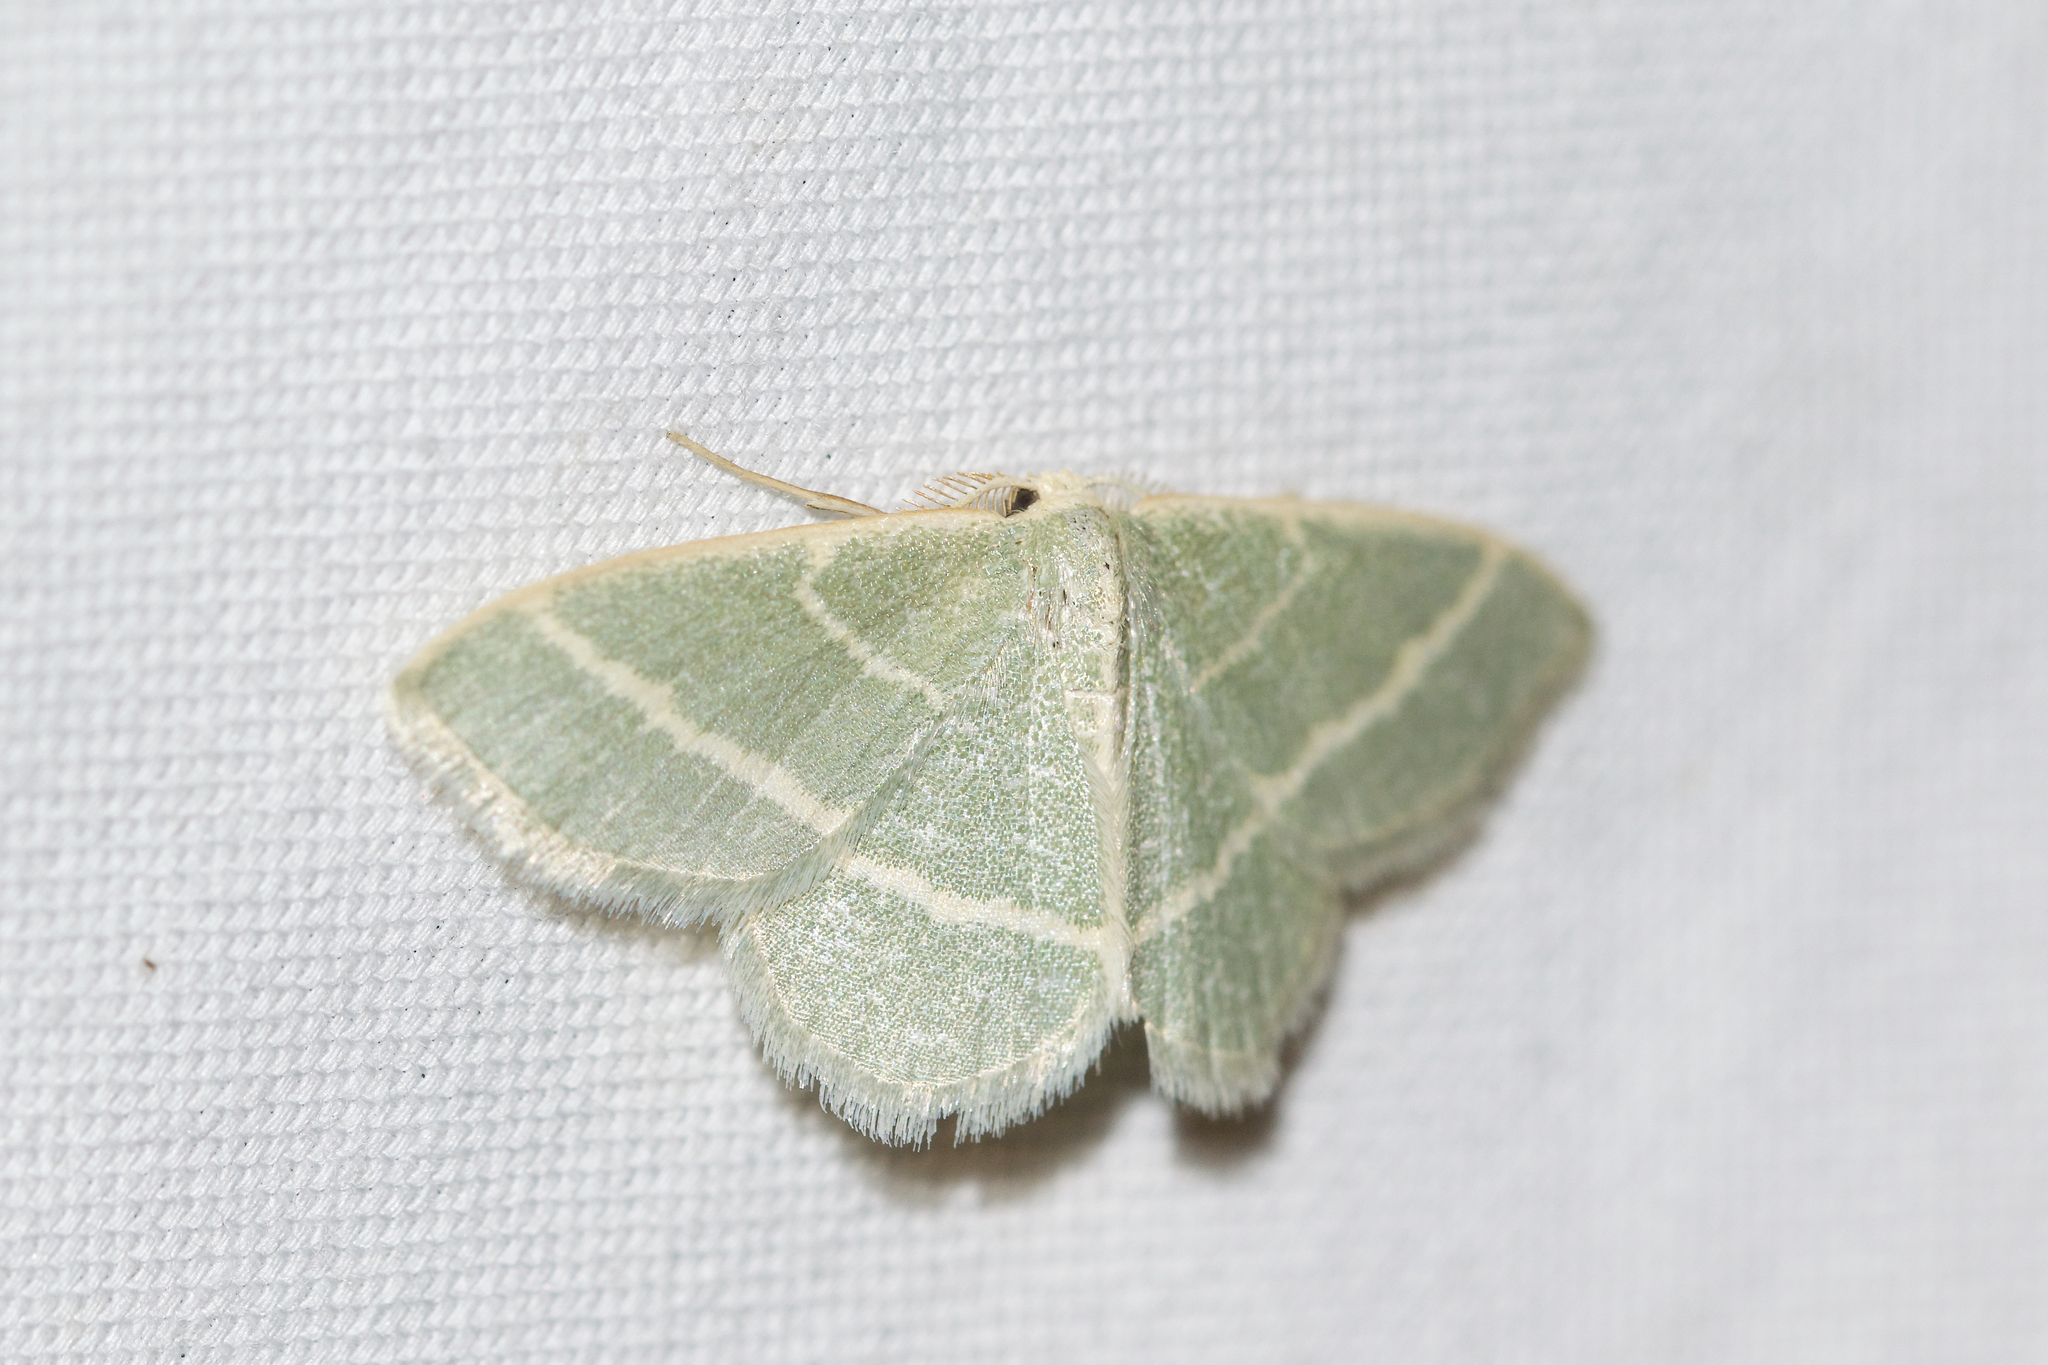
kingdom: Animalia
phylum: Arthropoda
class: Insecta
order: Lepidoptera
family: Geometridae
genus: Chlorochlamys
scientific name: Chlorochlamys chloroleucaria
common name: Blackberry looper
